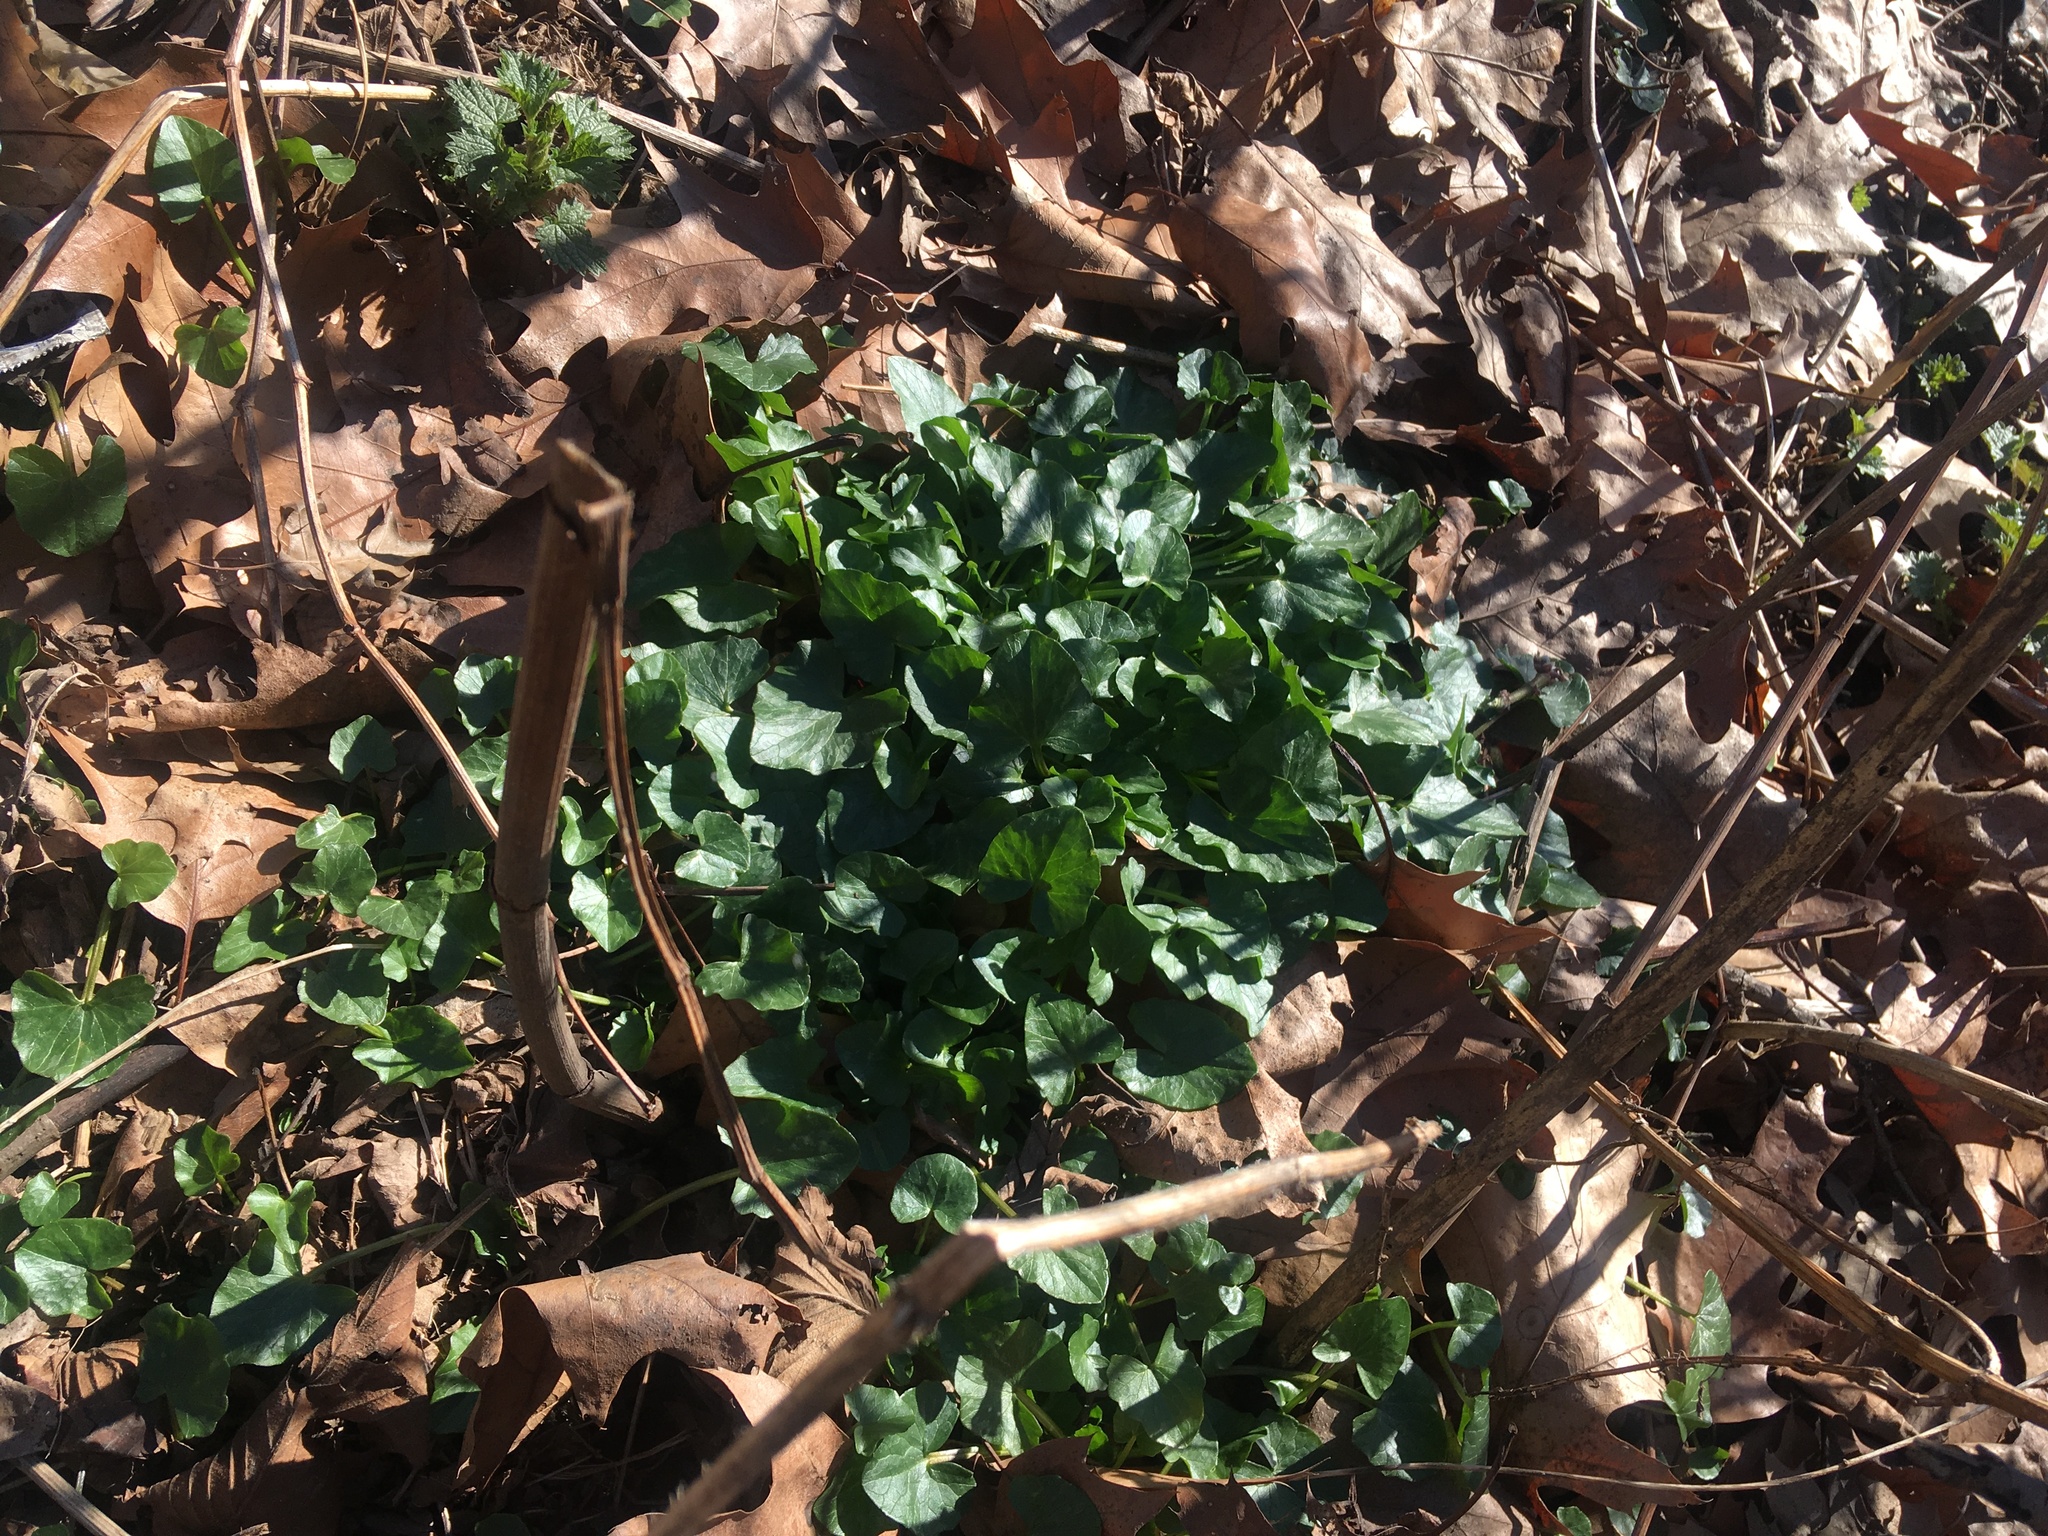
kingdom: Plantae
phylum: Tracheophyta
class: Magnoliopsida
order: Ranunculales
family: Ranunculaceae
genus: Ficaria
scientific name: Ficaria verna
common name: Lesser celandine
